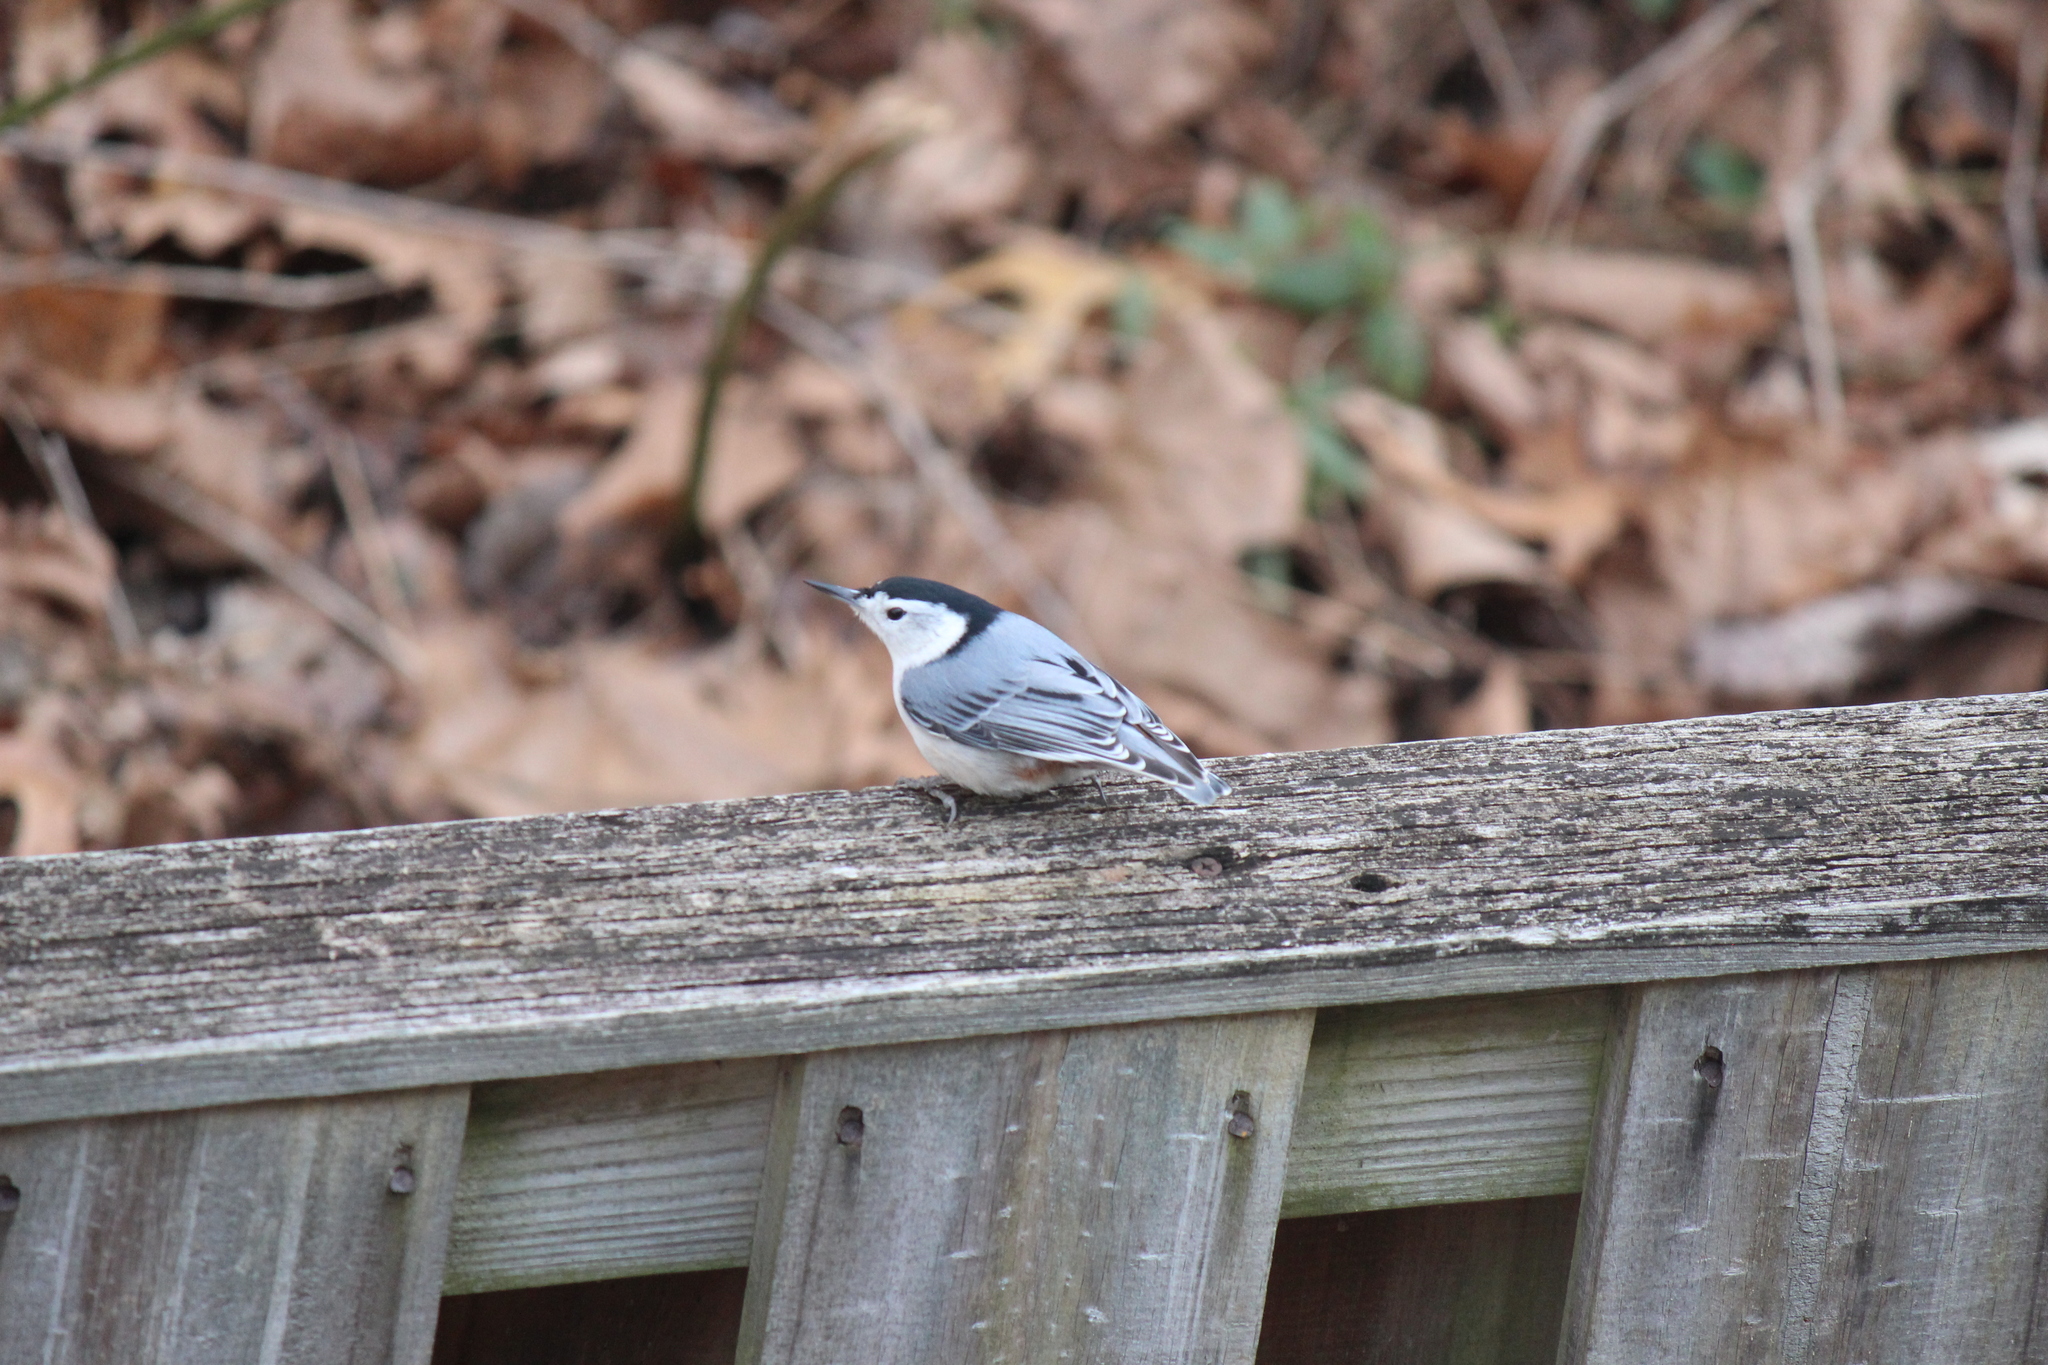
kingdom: Animalia
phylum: Chordata
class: Aves
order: Passeriformes
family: Sittidae
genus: Sitta
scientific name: Sitta carolinensis
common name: White-breasted nuthatch
